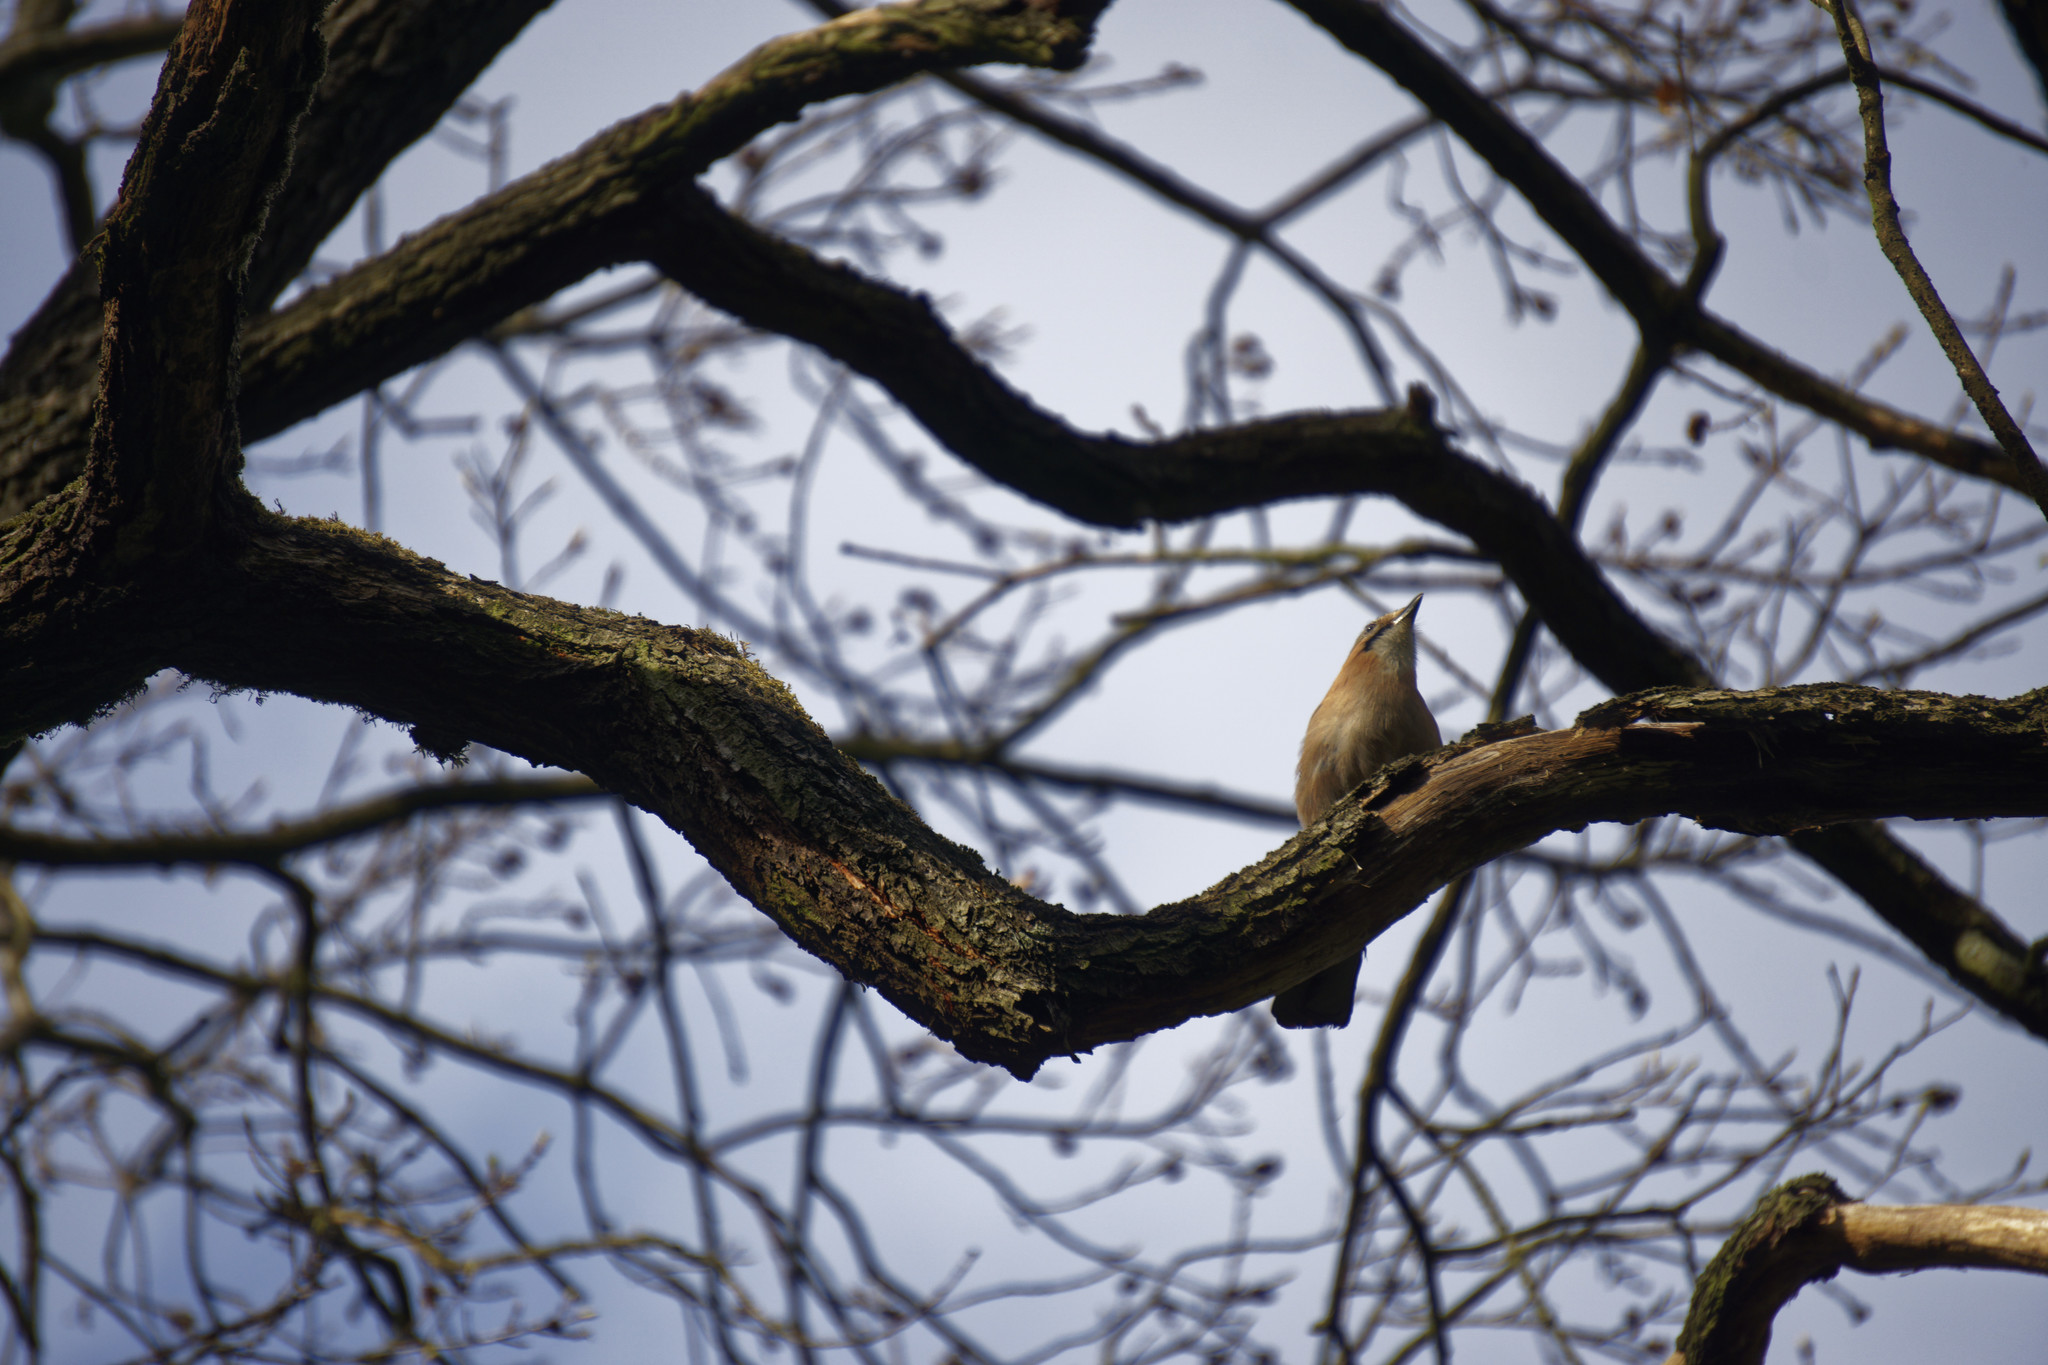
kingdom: Animalia
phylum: Chordata
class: Aves
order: Passeriformes
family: Corvidae
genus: Garrulus
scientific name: Garrulus glandarius
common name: Eurasian jay
